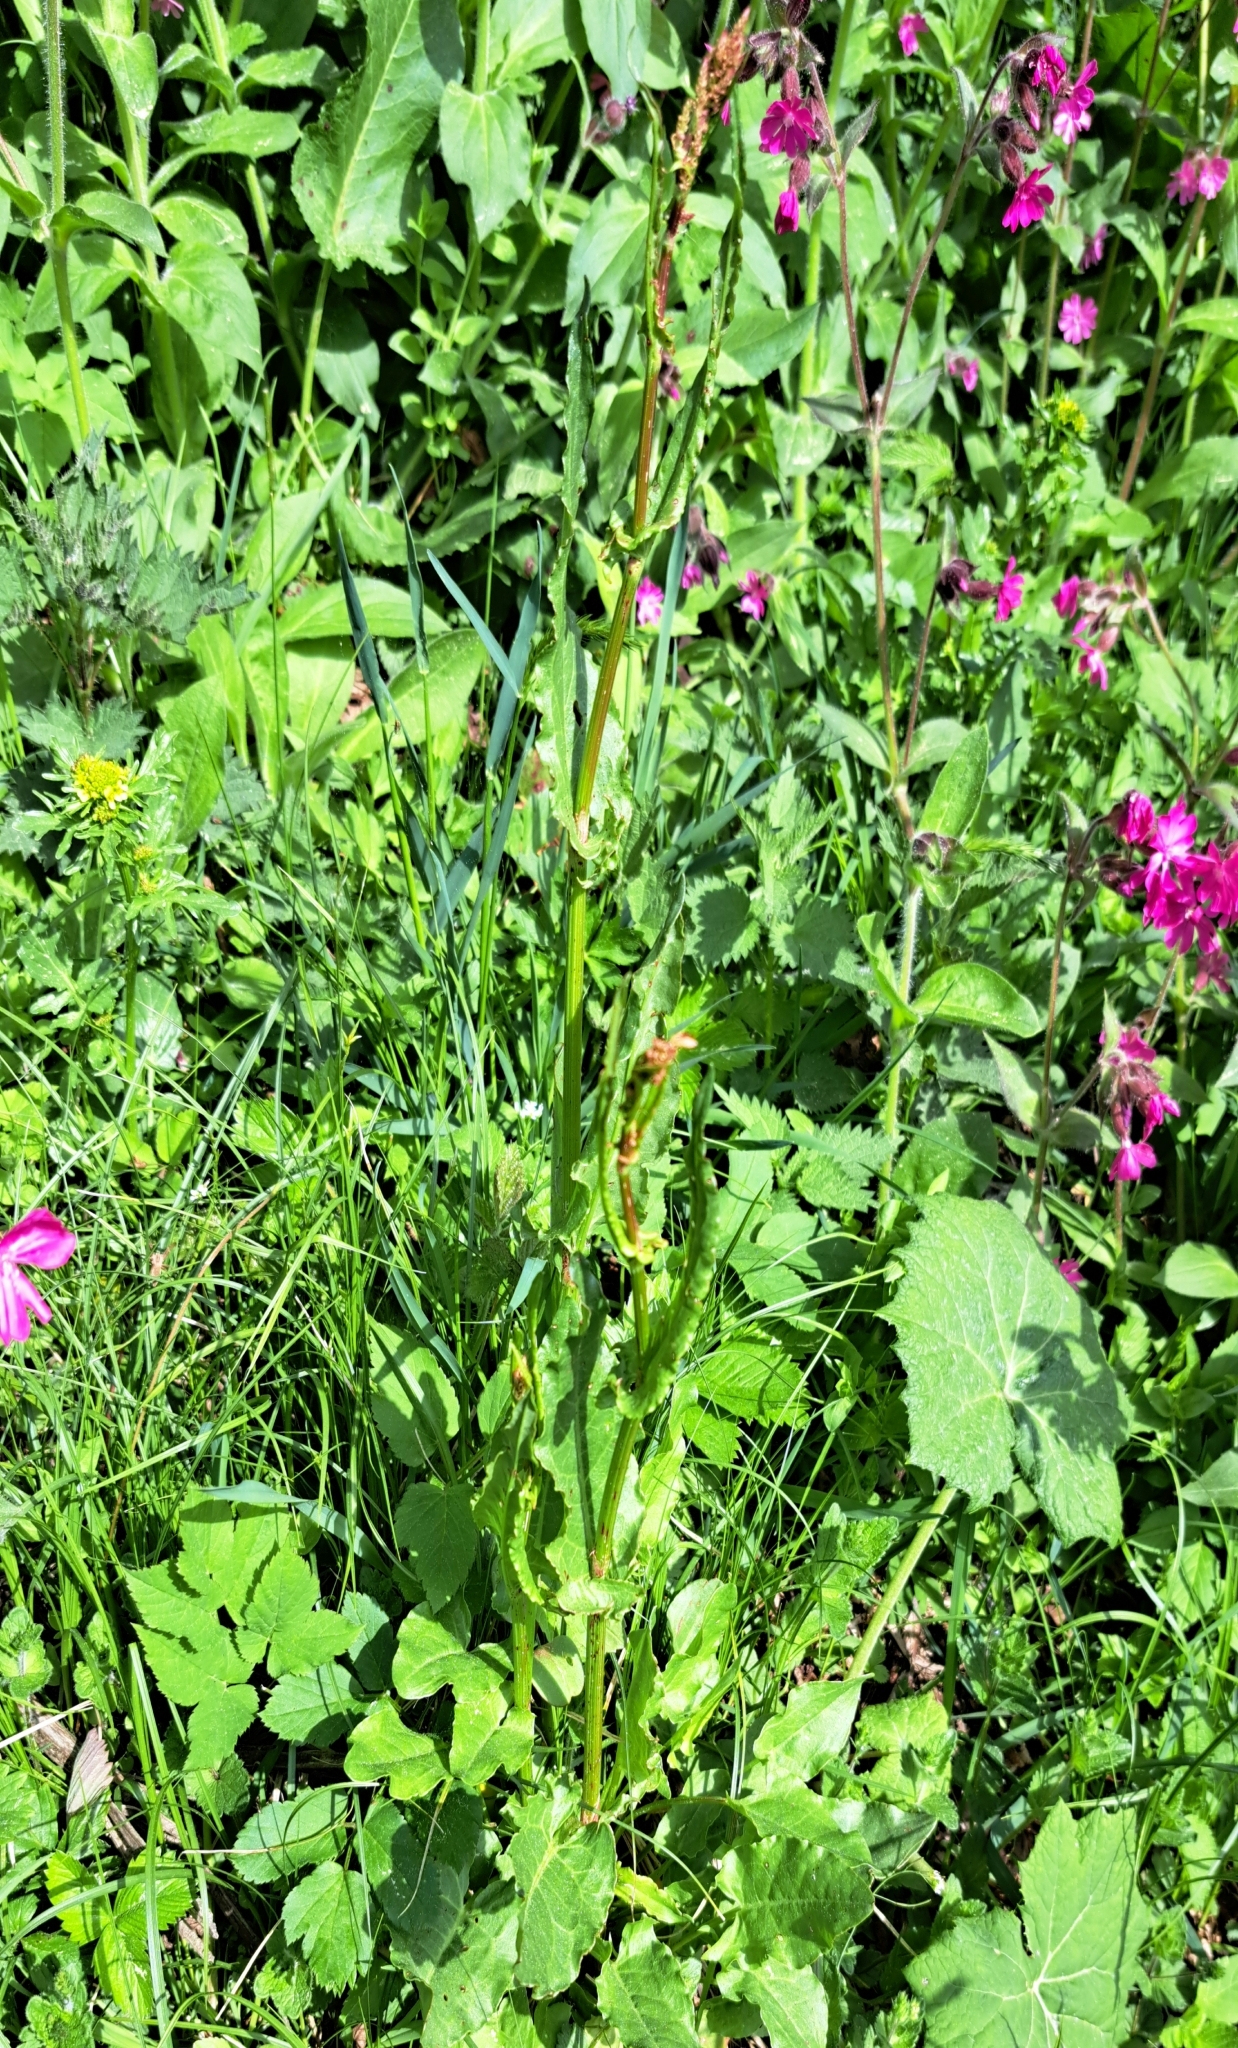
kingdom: Plantae
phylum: Tracheophyta
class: Magnoliopsida
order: Caryophyllales
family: Polygonaceae
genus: Rumex
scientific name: Rumex acetosa
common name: Garden sorrel
